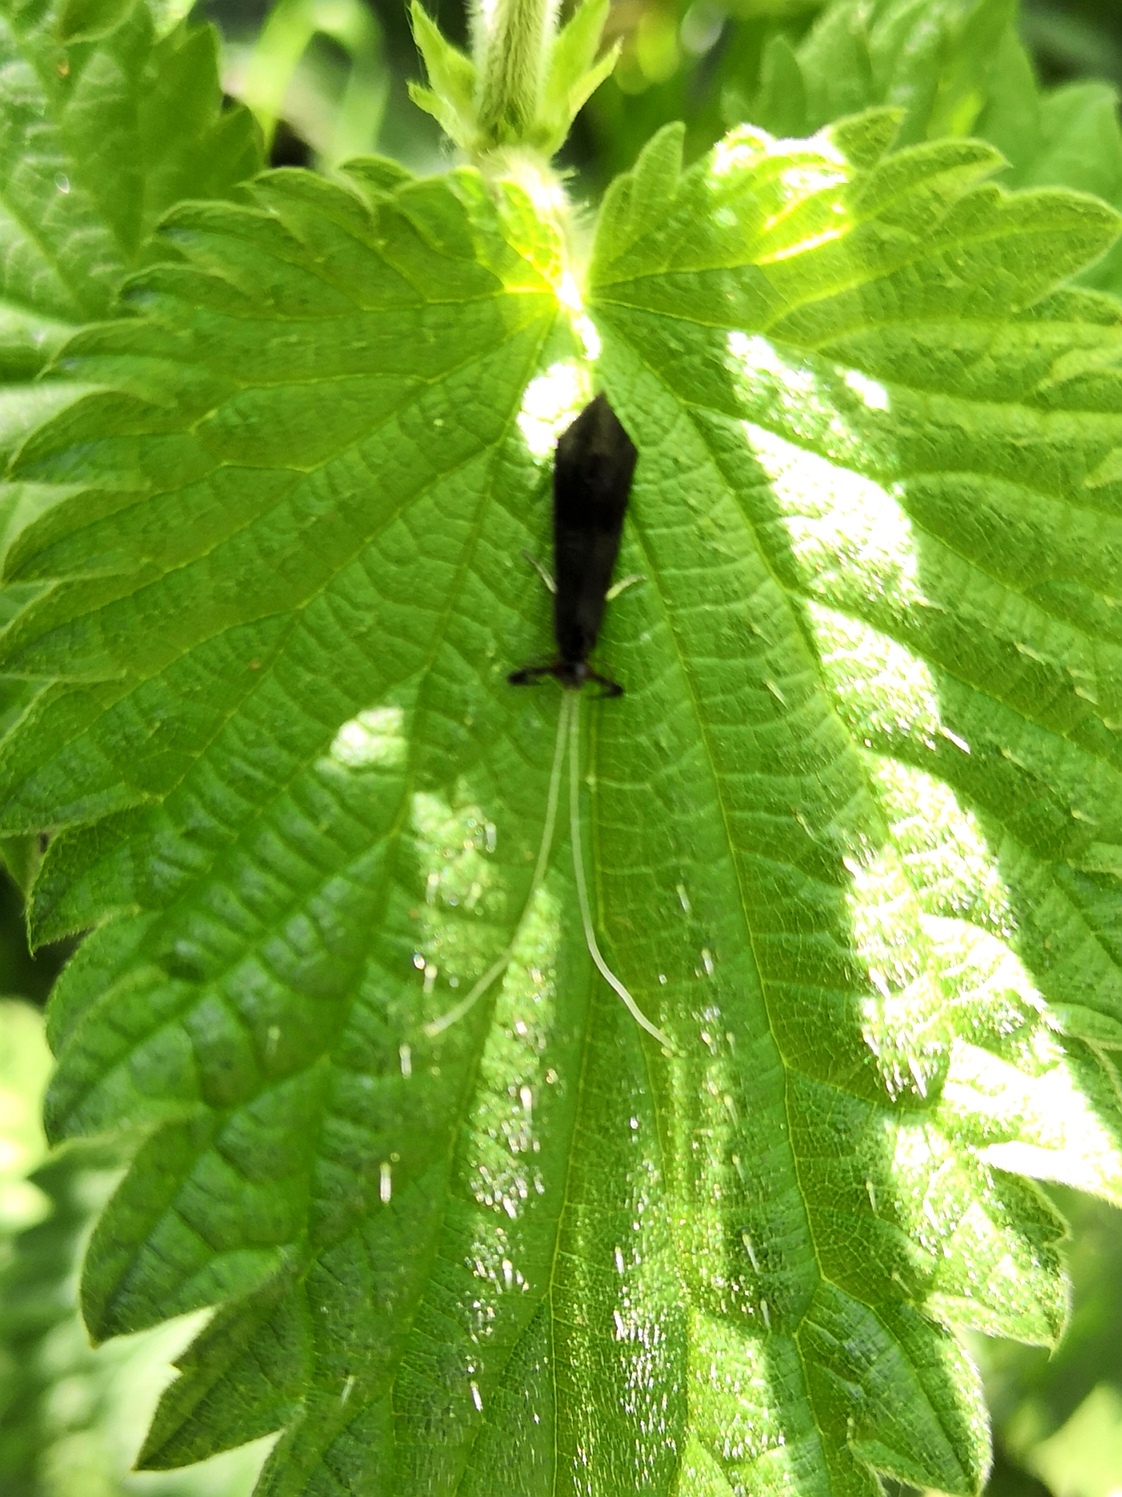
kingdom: Animalia
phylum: Arthropoda
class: Insecta
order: Trichoptera
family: Leptoceridae
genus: Mystacides
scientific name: Mystacides niger
